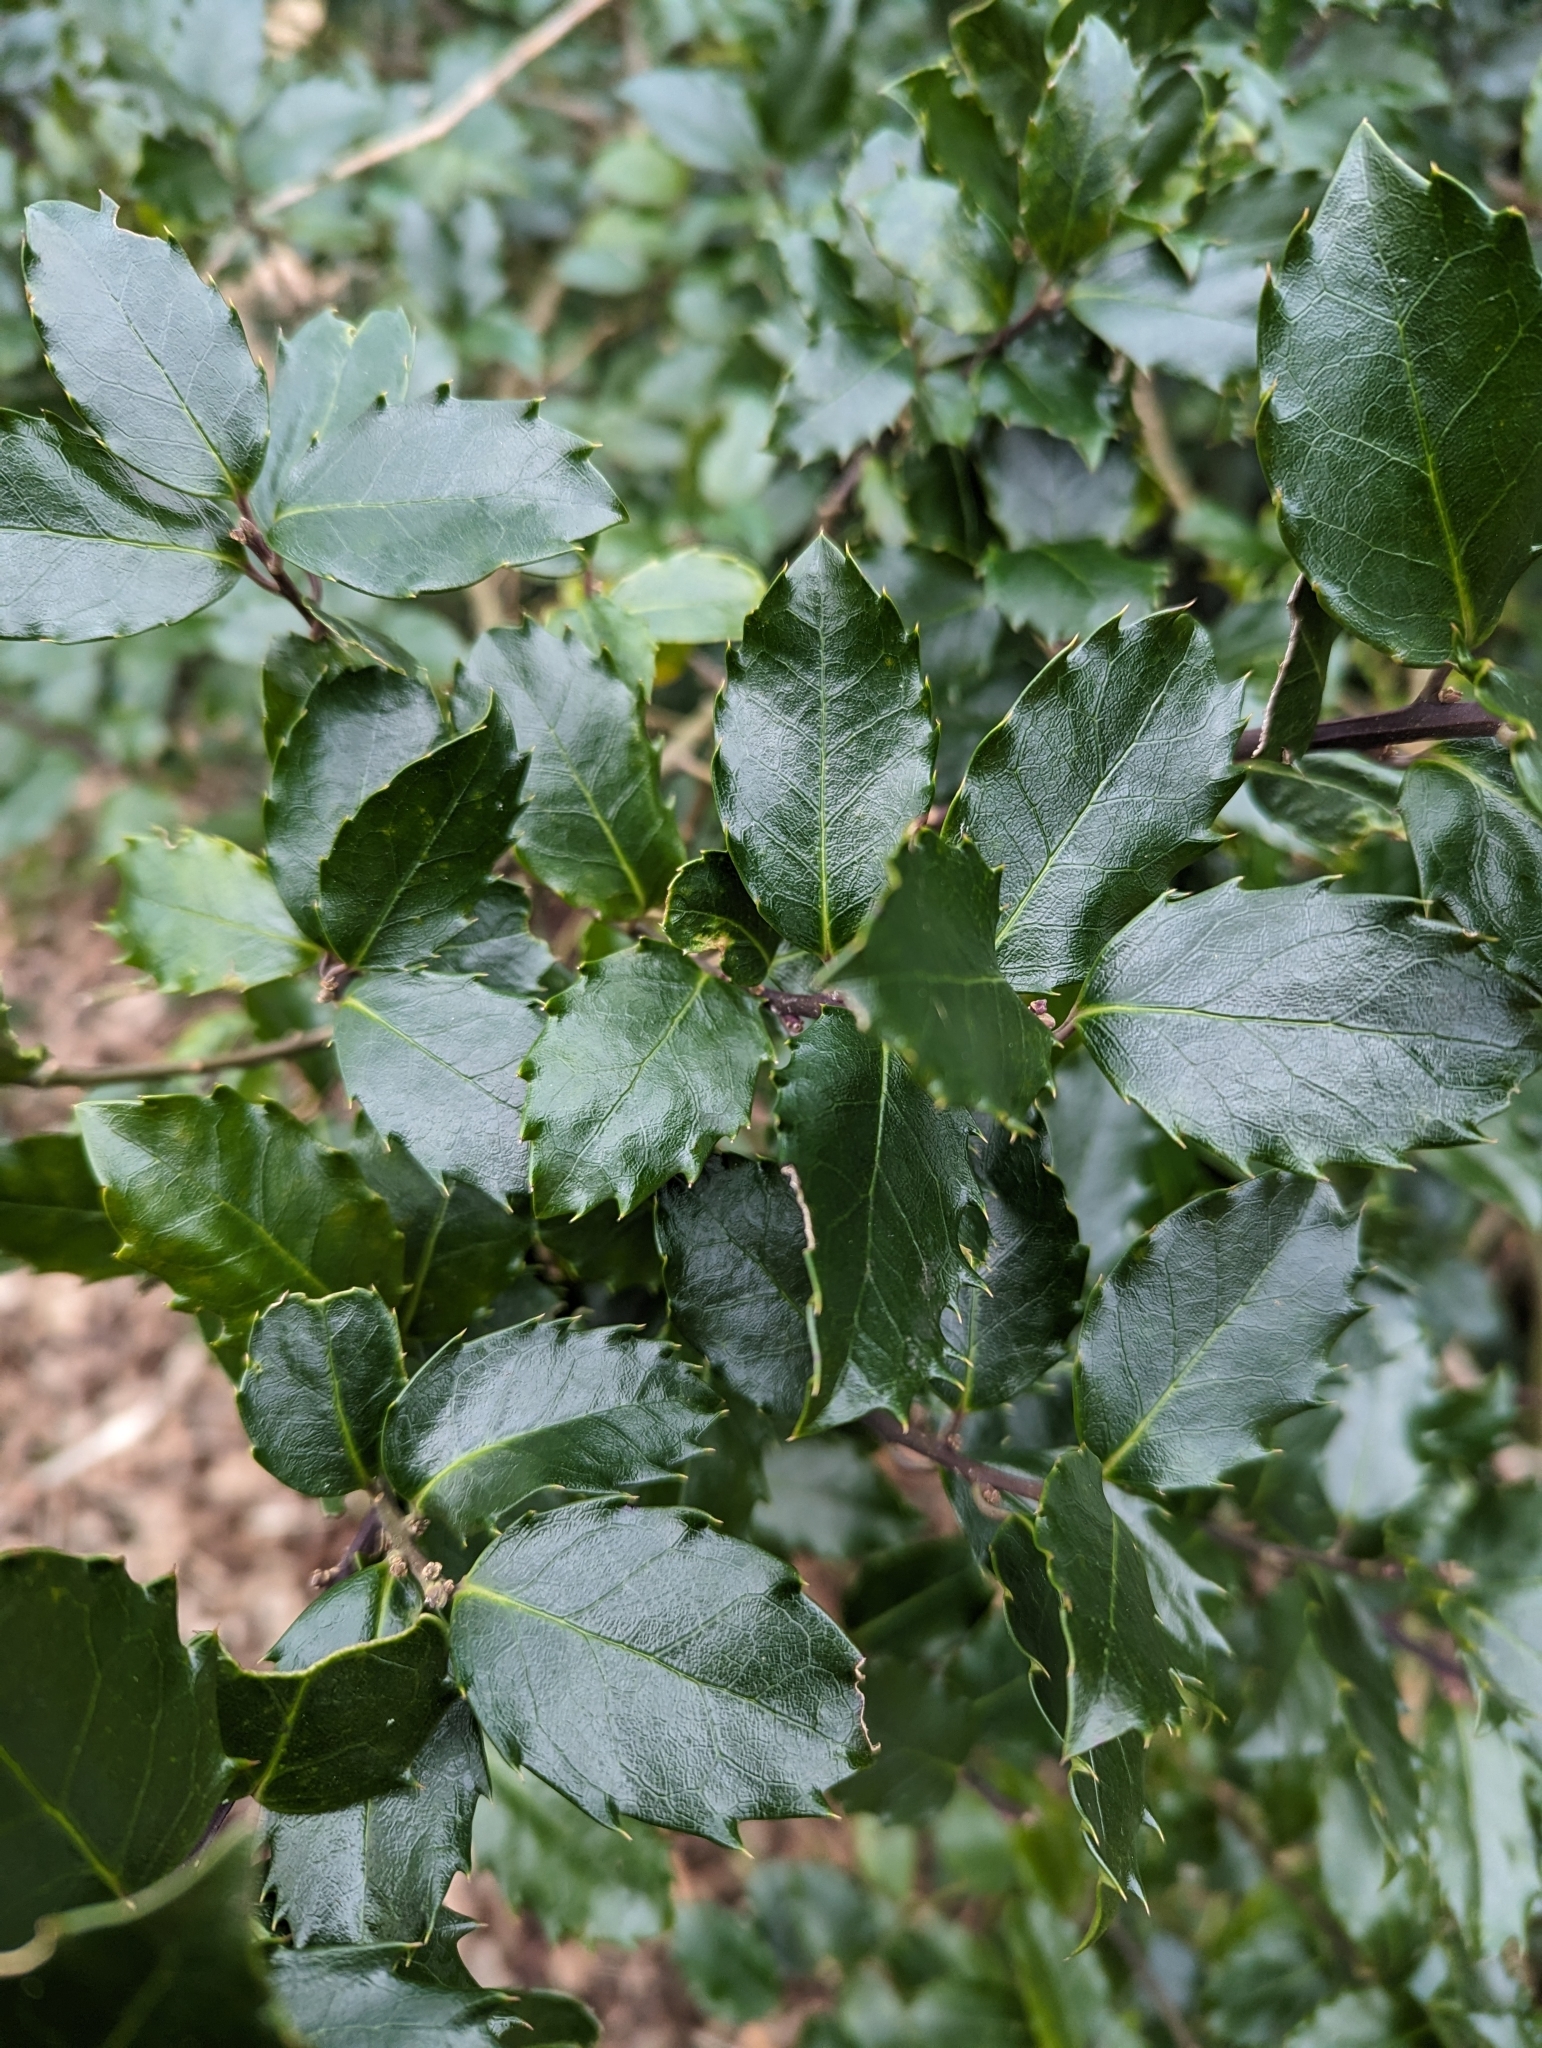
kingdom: Plantae
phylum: Tracheophyta
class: Magnoliopsida
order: Aquifoliales
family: Aquifoliaceae
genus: Ilex
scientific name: Ilex meserveae
